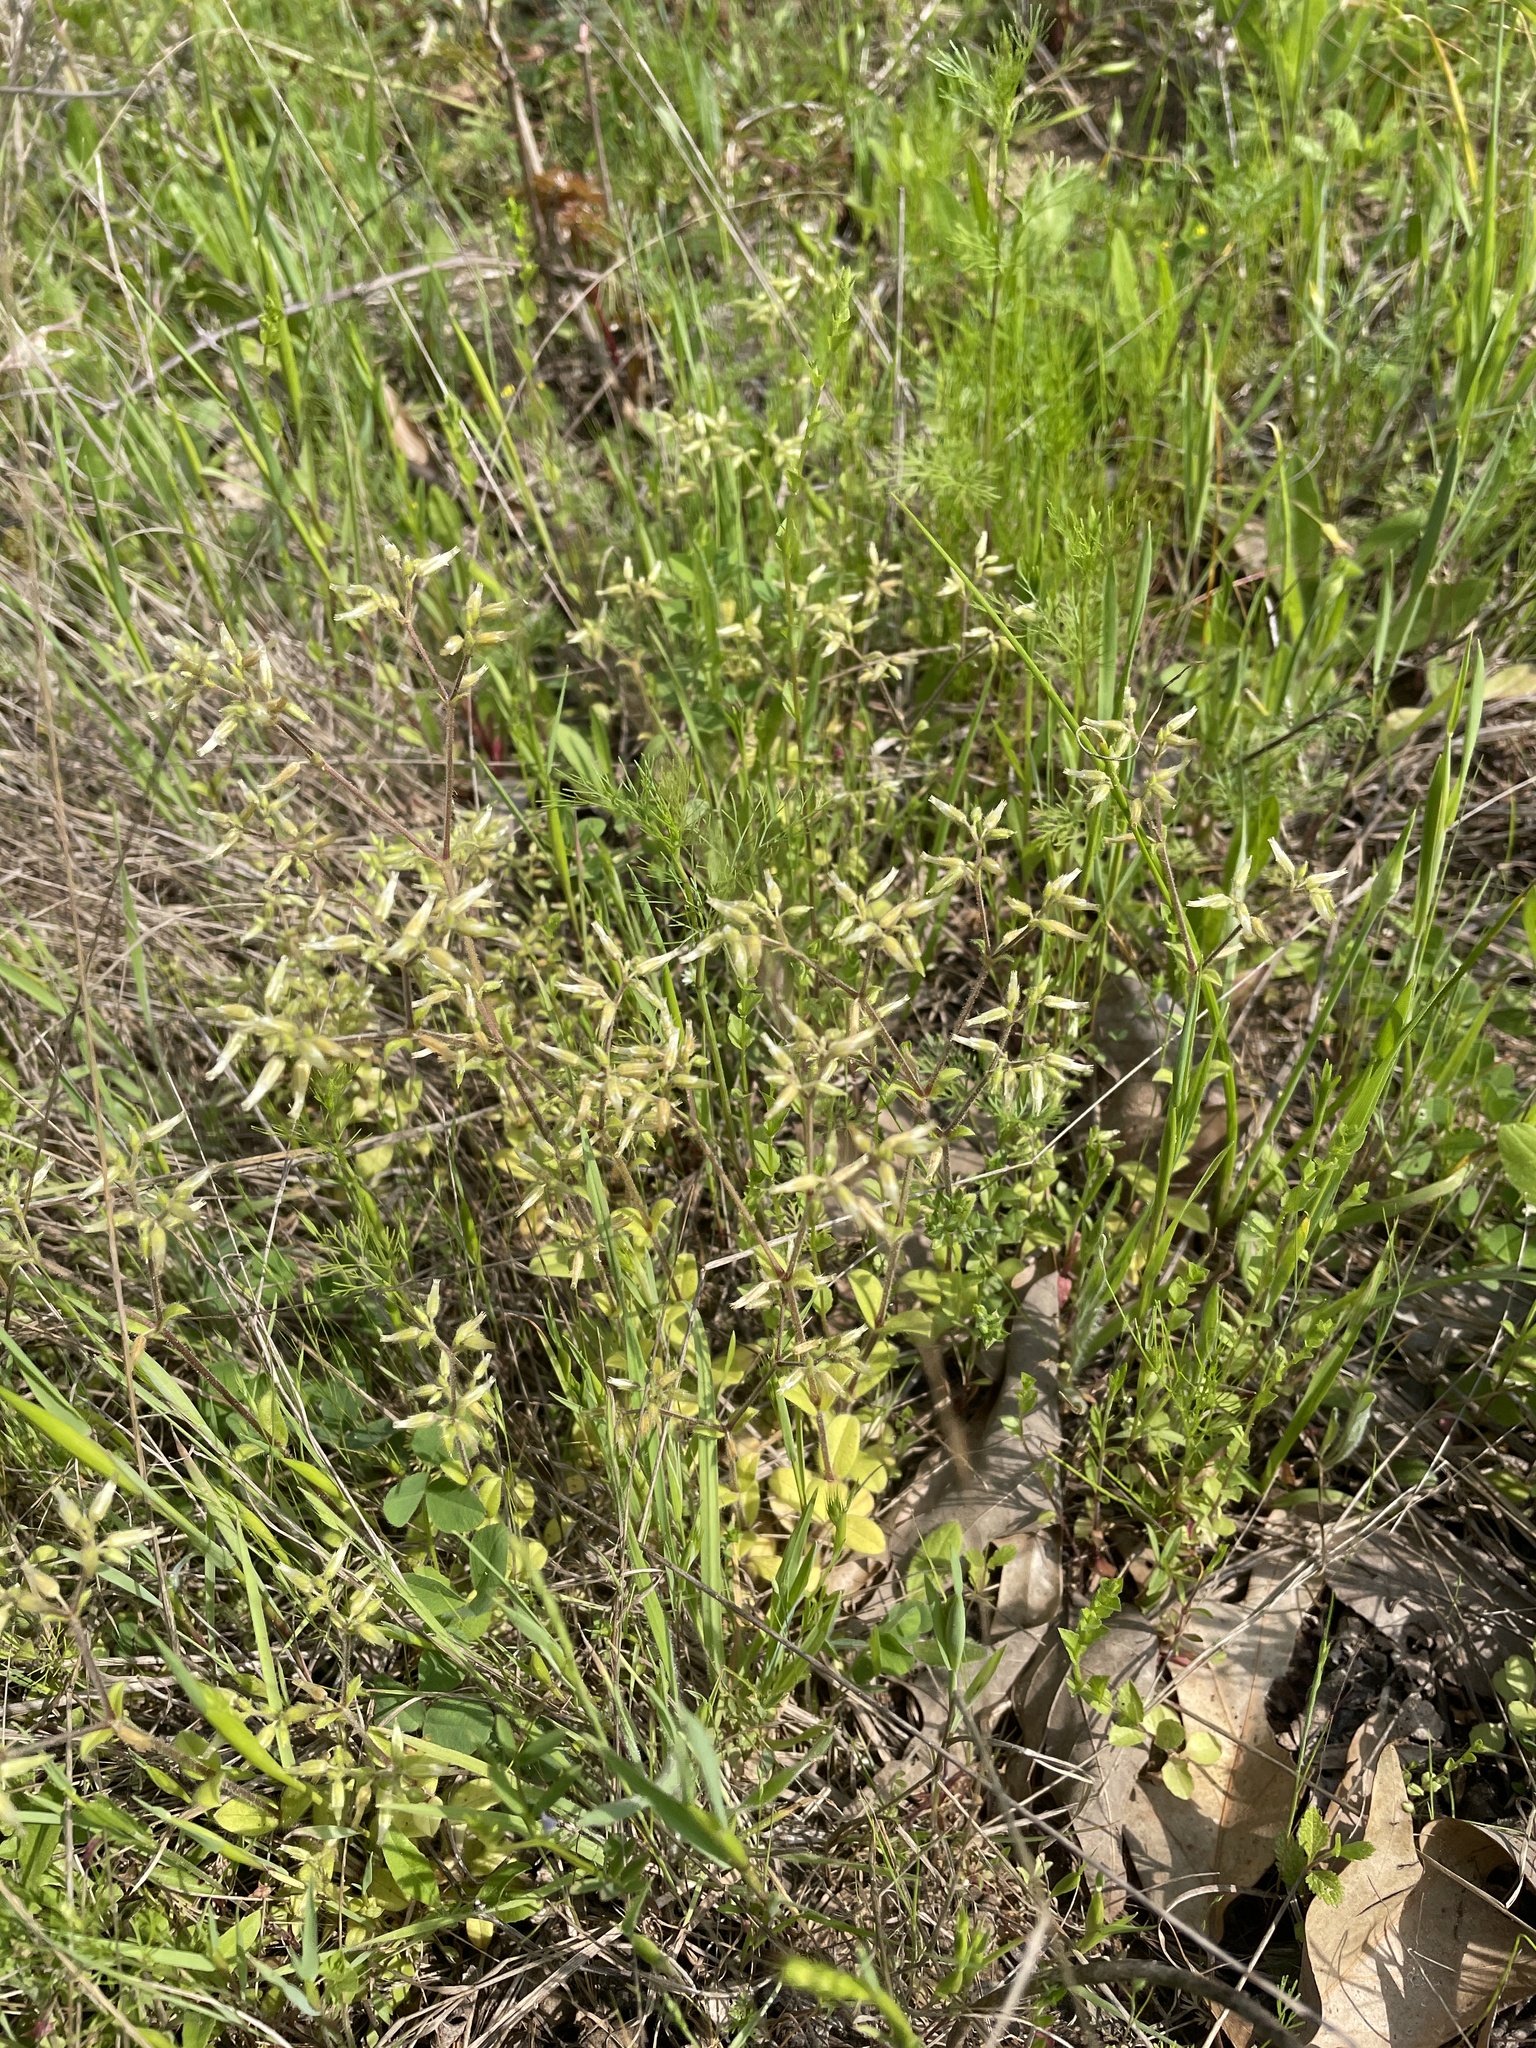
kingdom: Plantae
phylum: Tracheophyta
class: Magnoliopsida
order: Caryophyllales
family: Caryophyllaceae
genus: Cerastium
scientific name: Cerastium glomeratum
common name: Sticky chickweed
